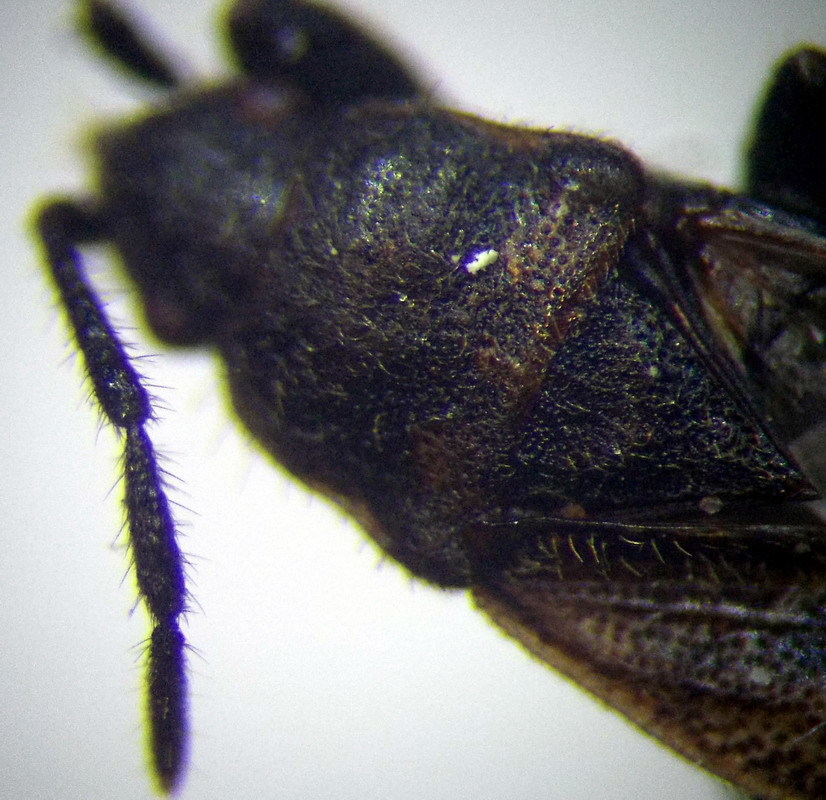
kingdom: Animalia
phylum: Arthropoda
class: Insecta
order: Hemiptera
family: Rhyparochromidae
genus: Pezocoris
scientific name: Pezocoris apicimacula
